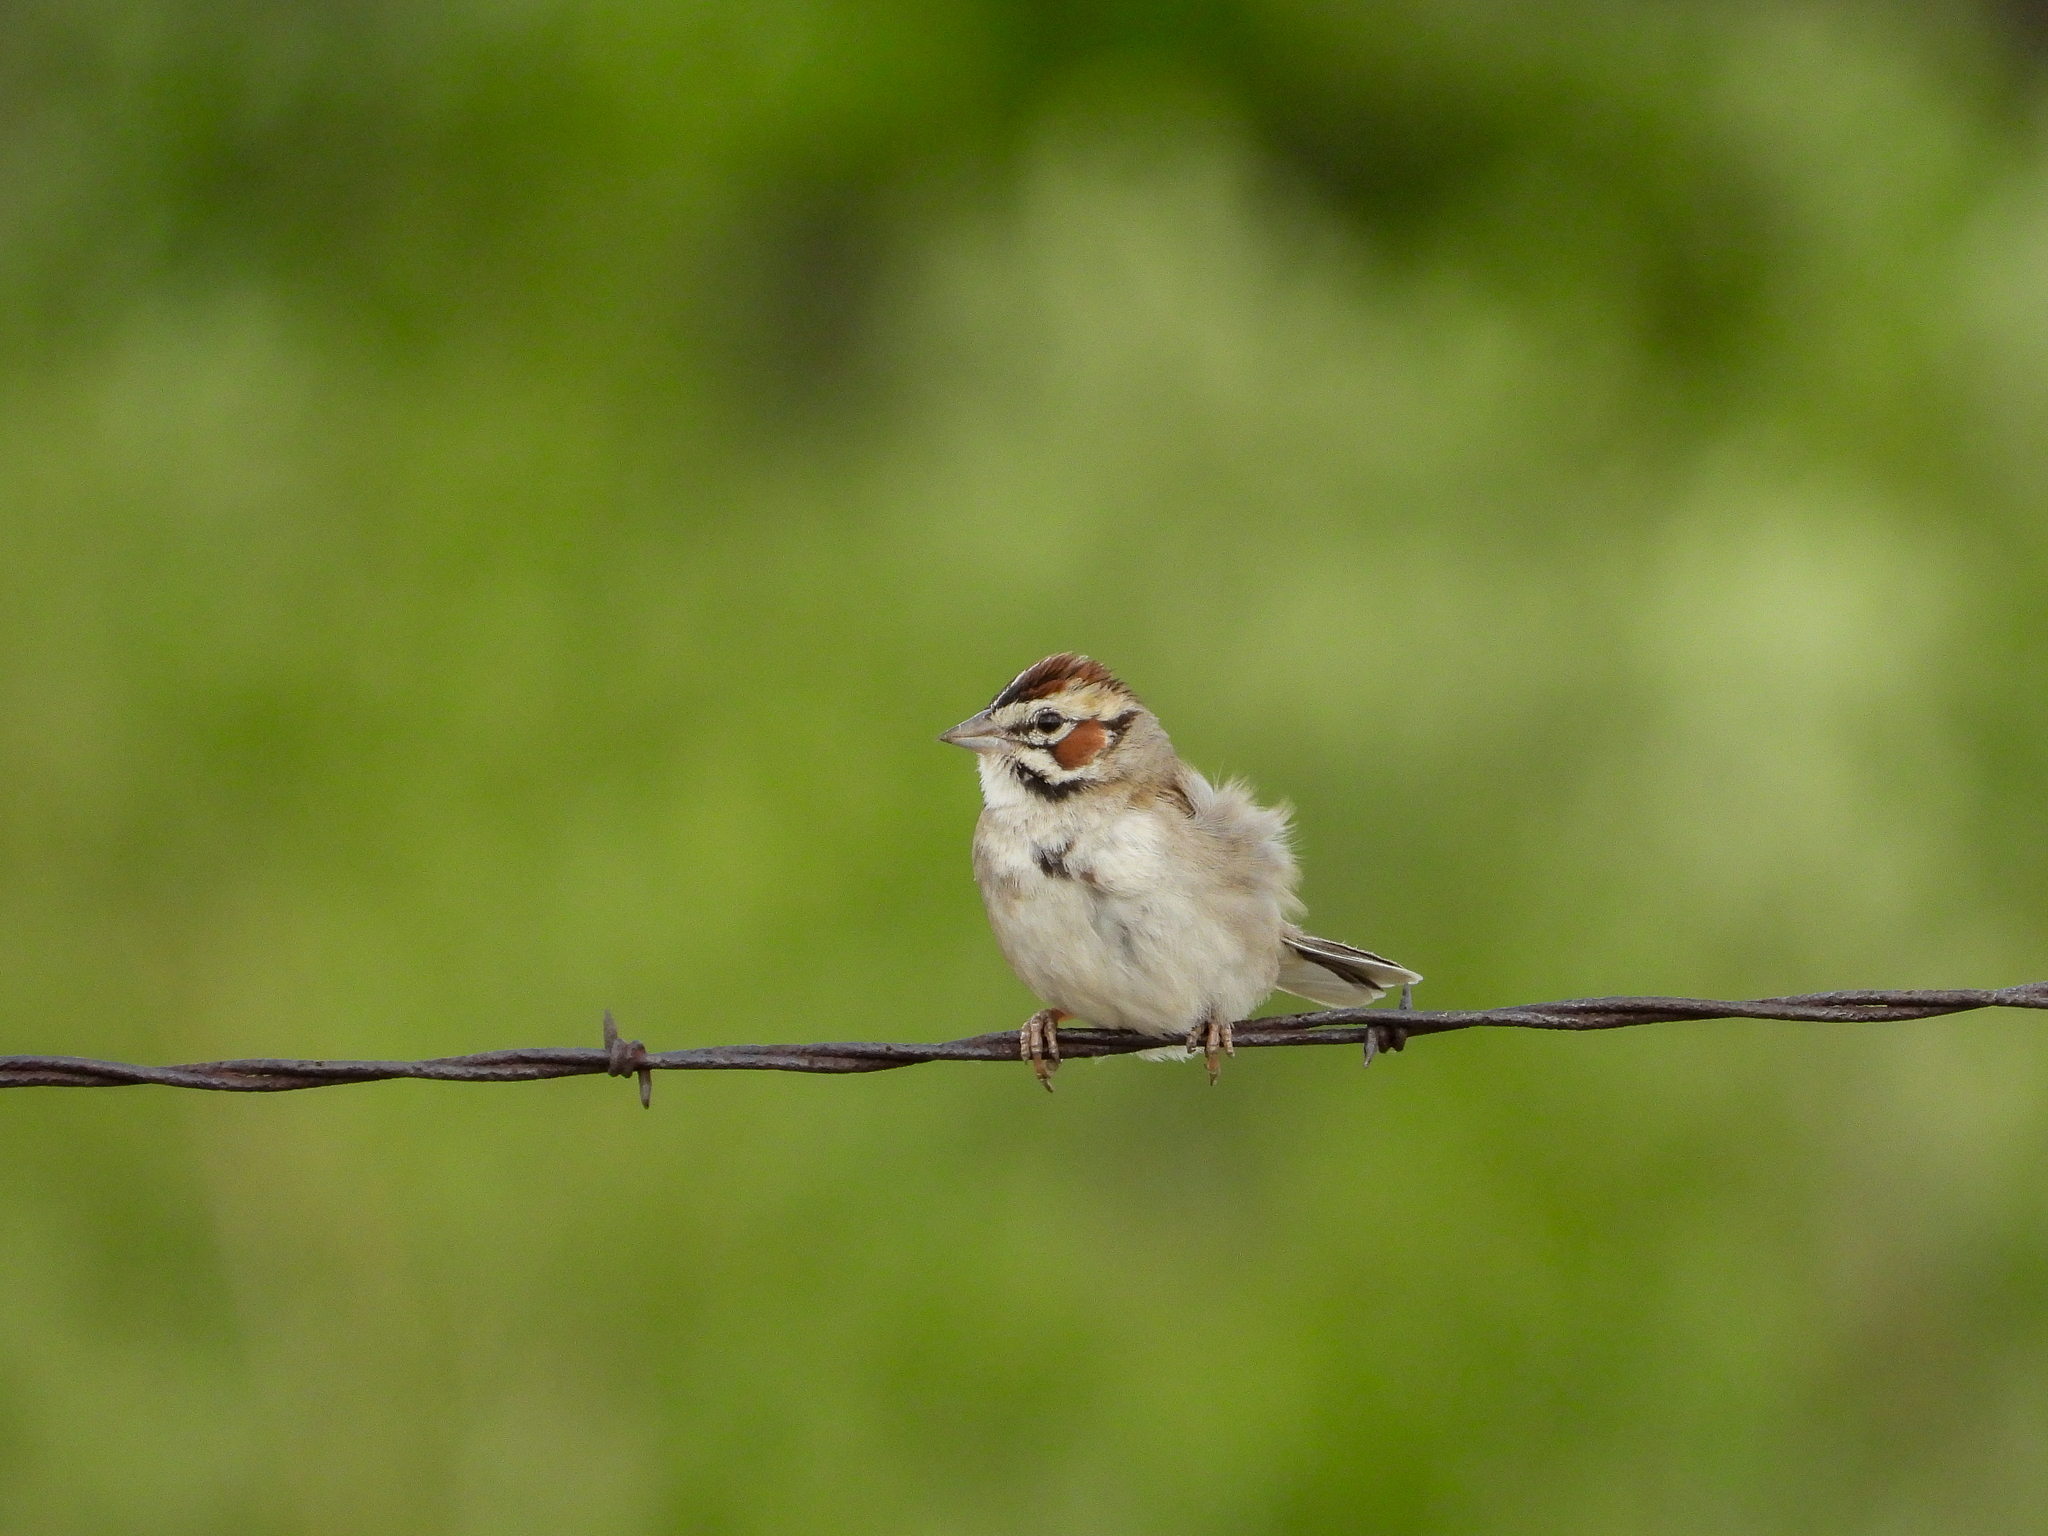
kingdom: Animalia
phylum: Chordata
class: Aves
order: Passeriformes
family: Passerellidae
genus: Chondestes
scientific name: Chondestes grammacus
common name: Lark sparrow
